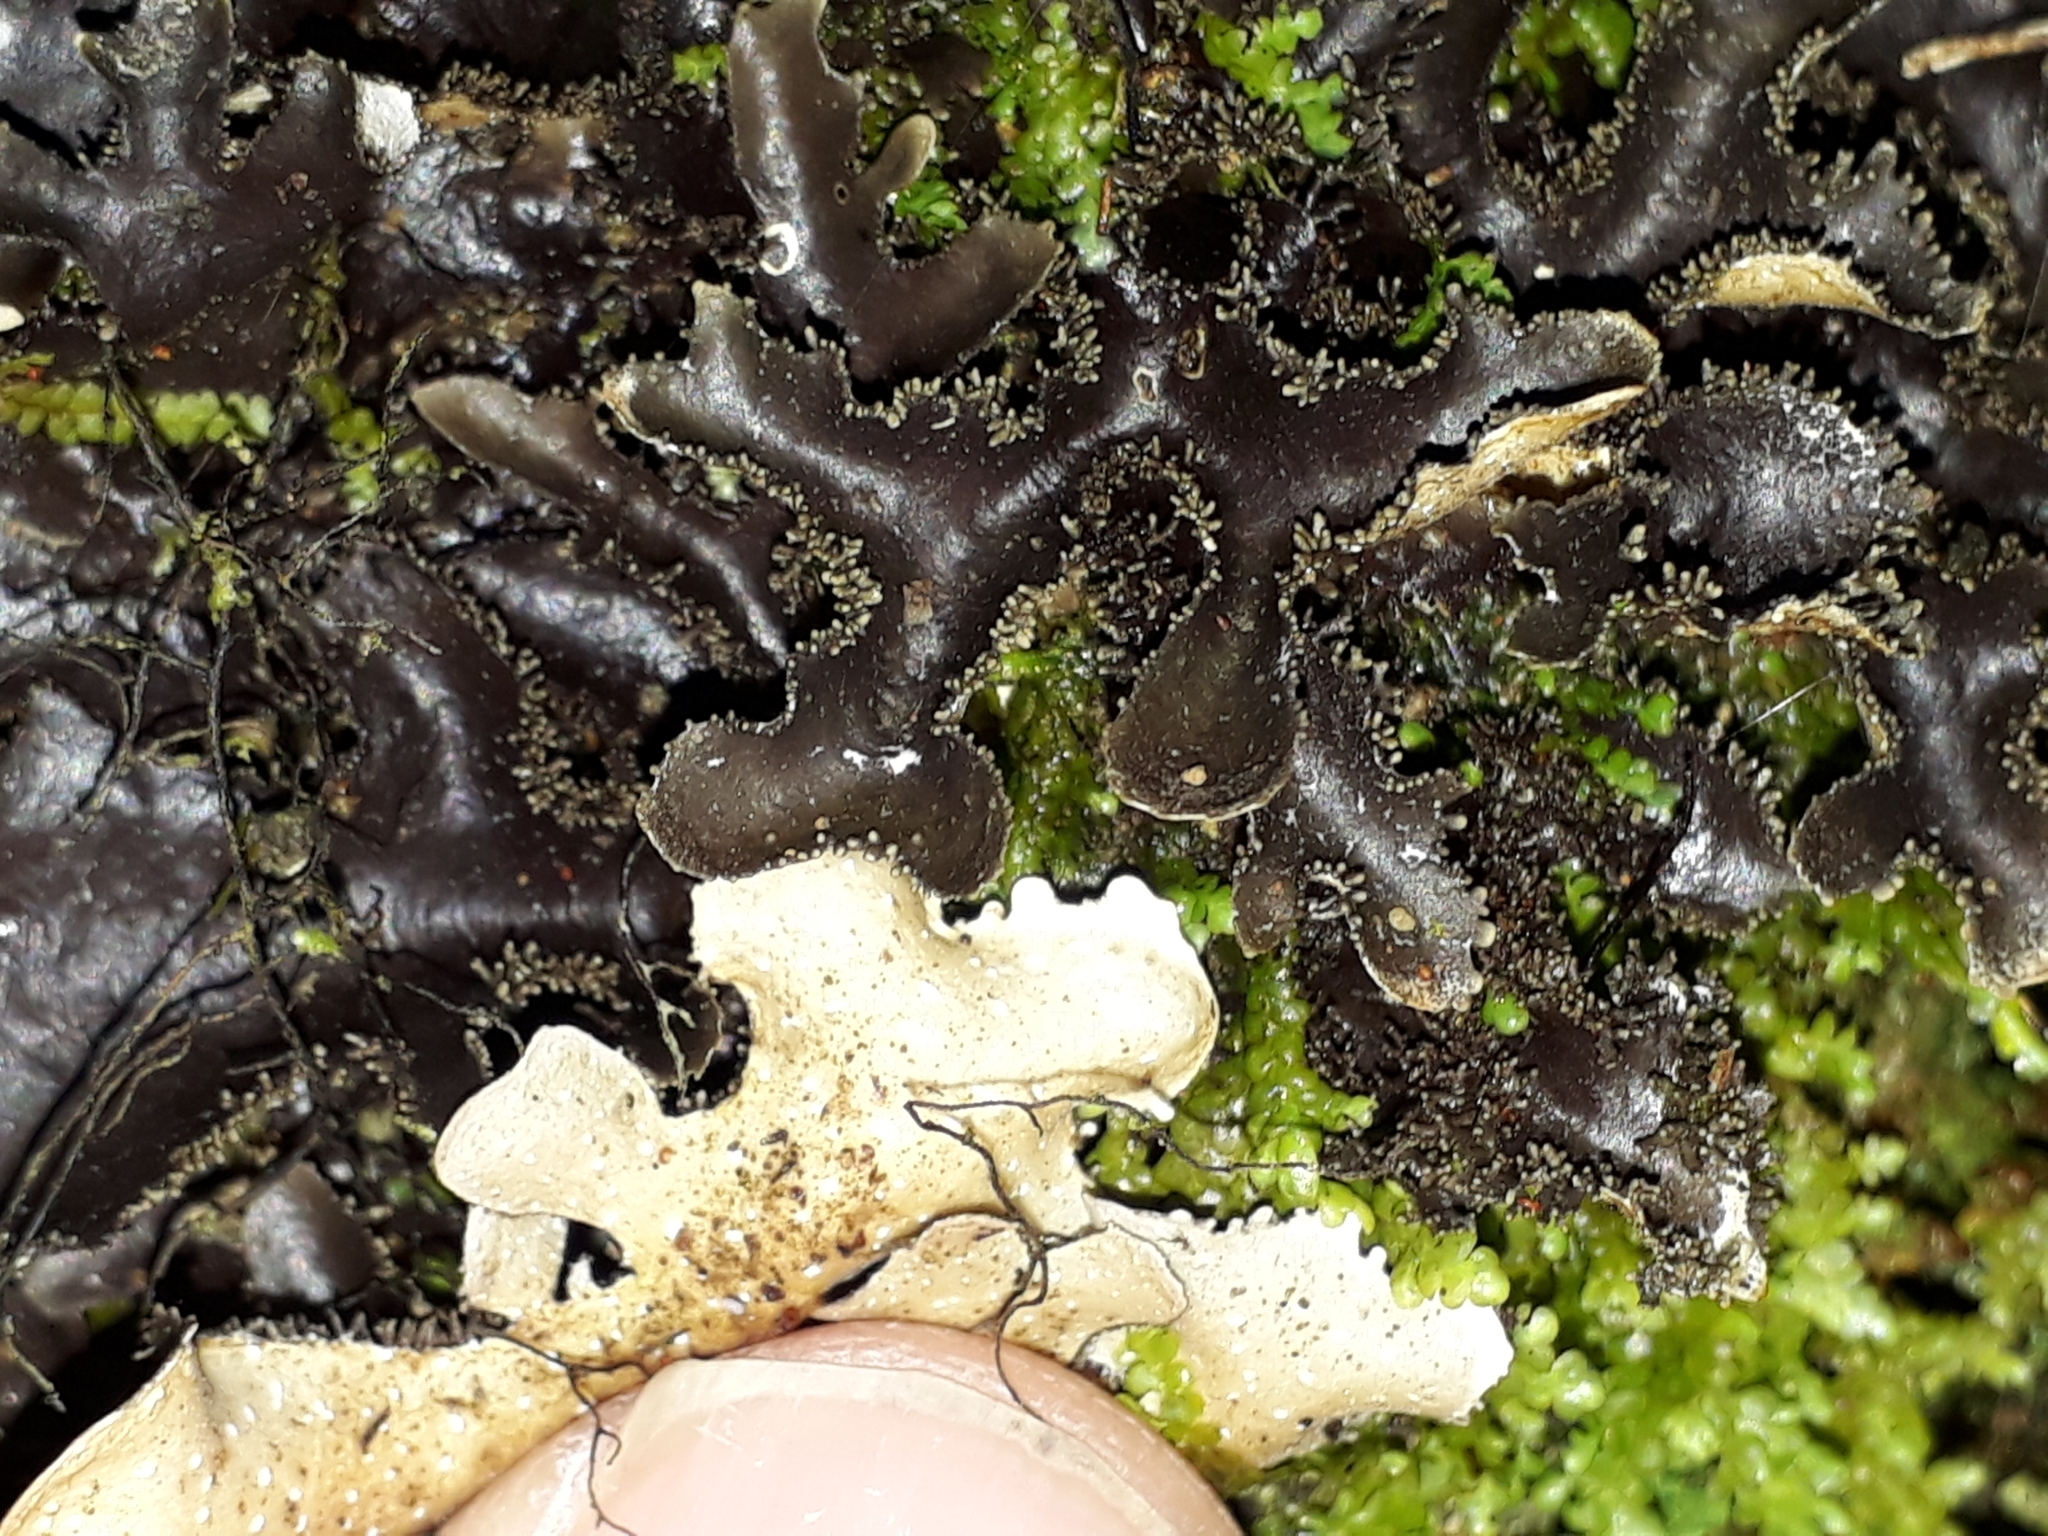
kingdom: Fungi
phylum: Ascomycota
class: Lecanoromycetes
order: Peltigerales
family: Lobariaceae
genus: Pseudocyphellaria
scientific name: Pseudocyphellaria dissimilis
